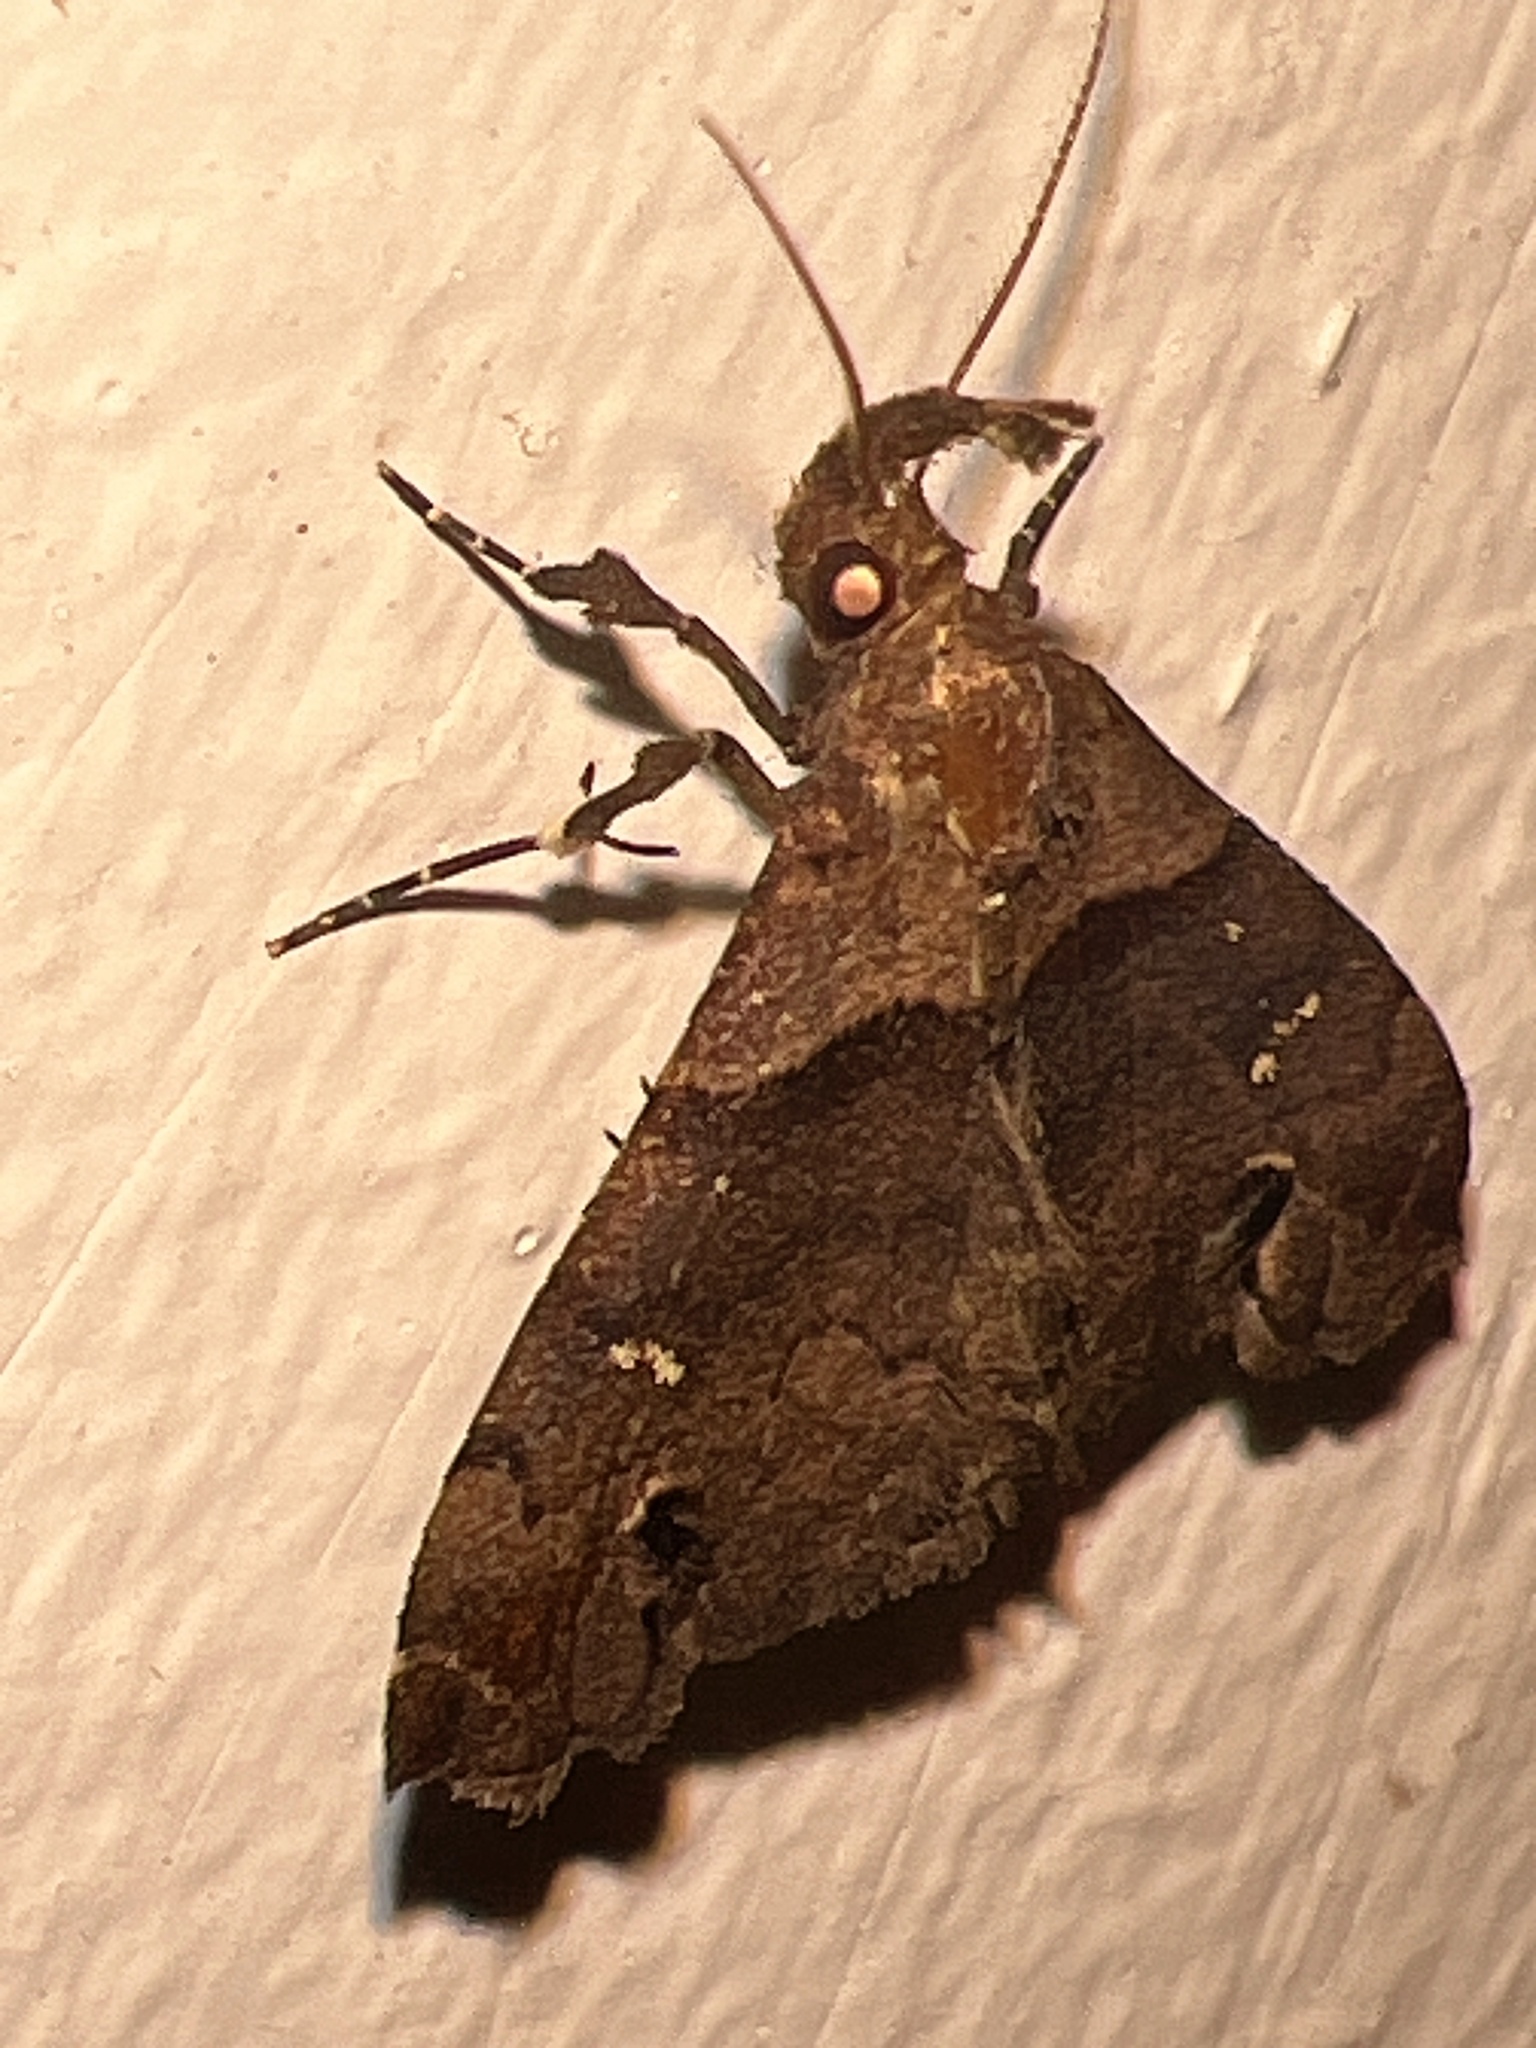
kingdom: Animalia
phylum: Arthropoda
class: Insecta
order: Lepidoptera
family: Erebidae
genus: Lascoria
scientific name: Lascoria ambigualis
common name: Ambiguous moth
